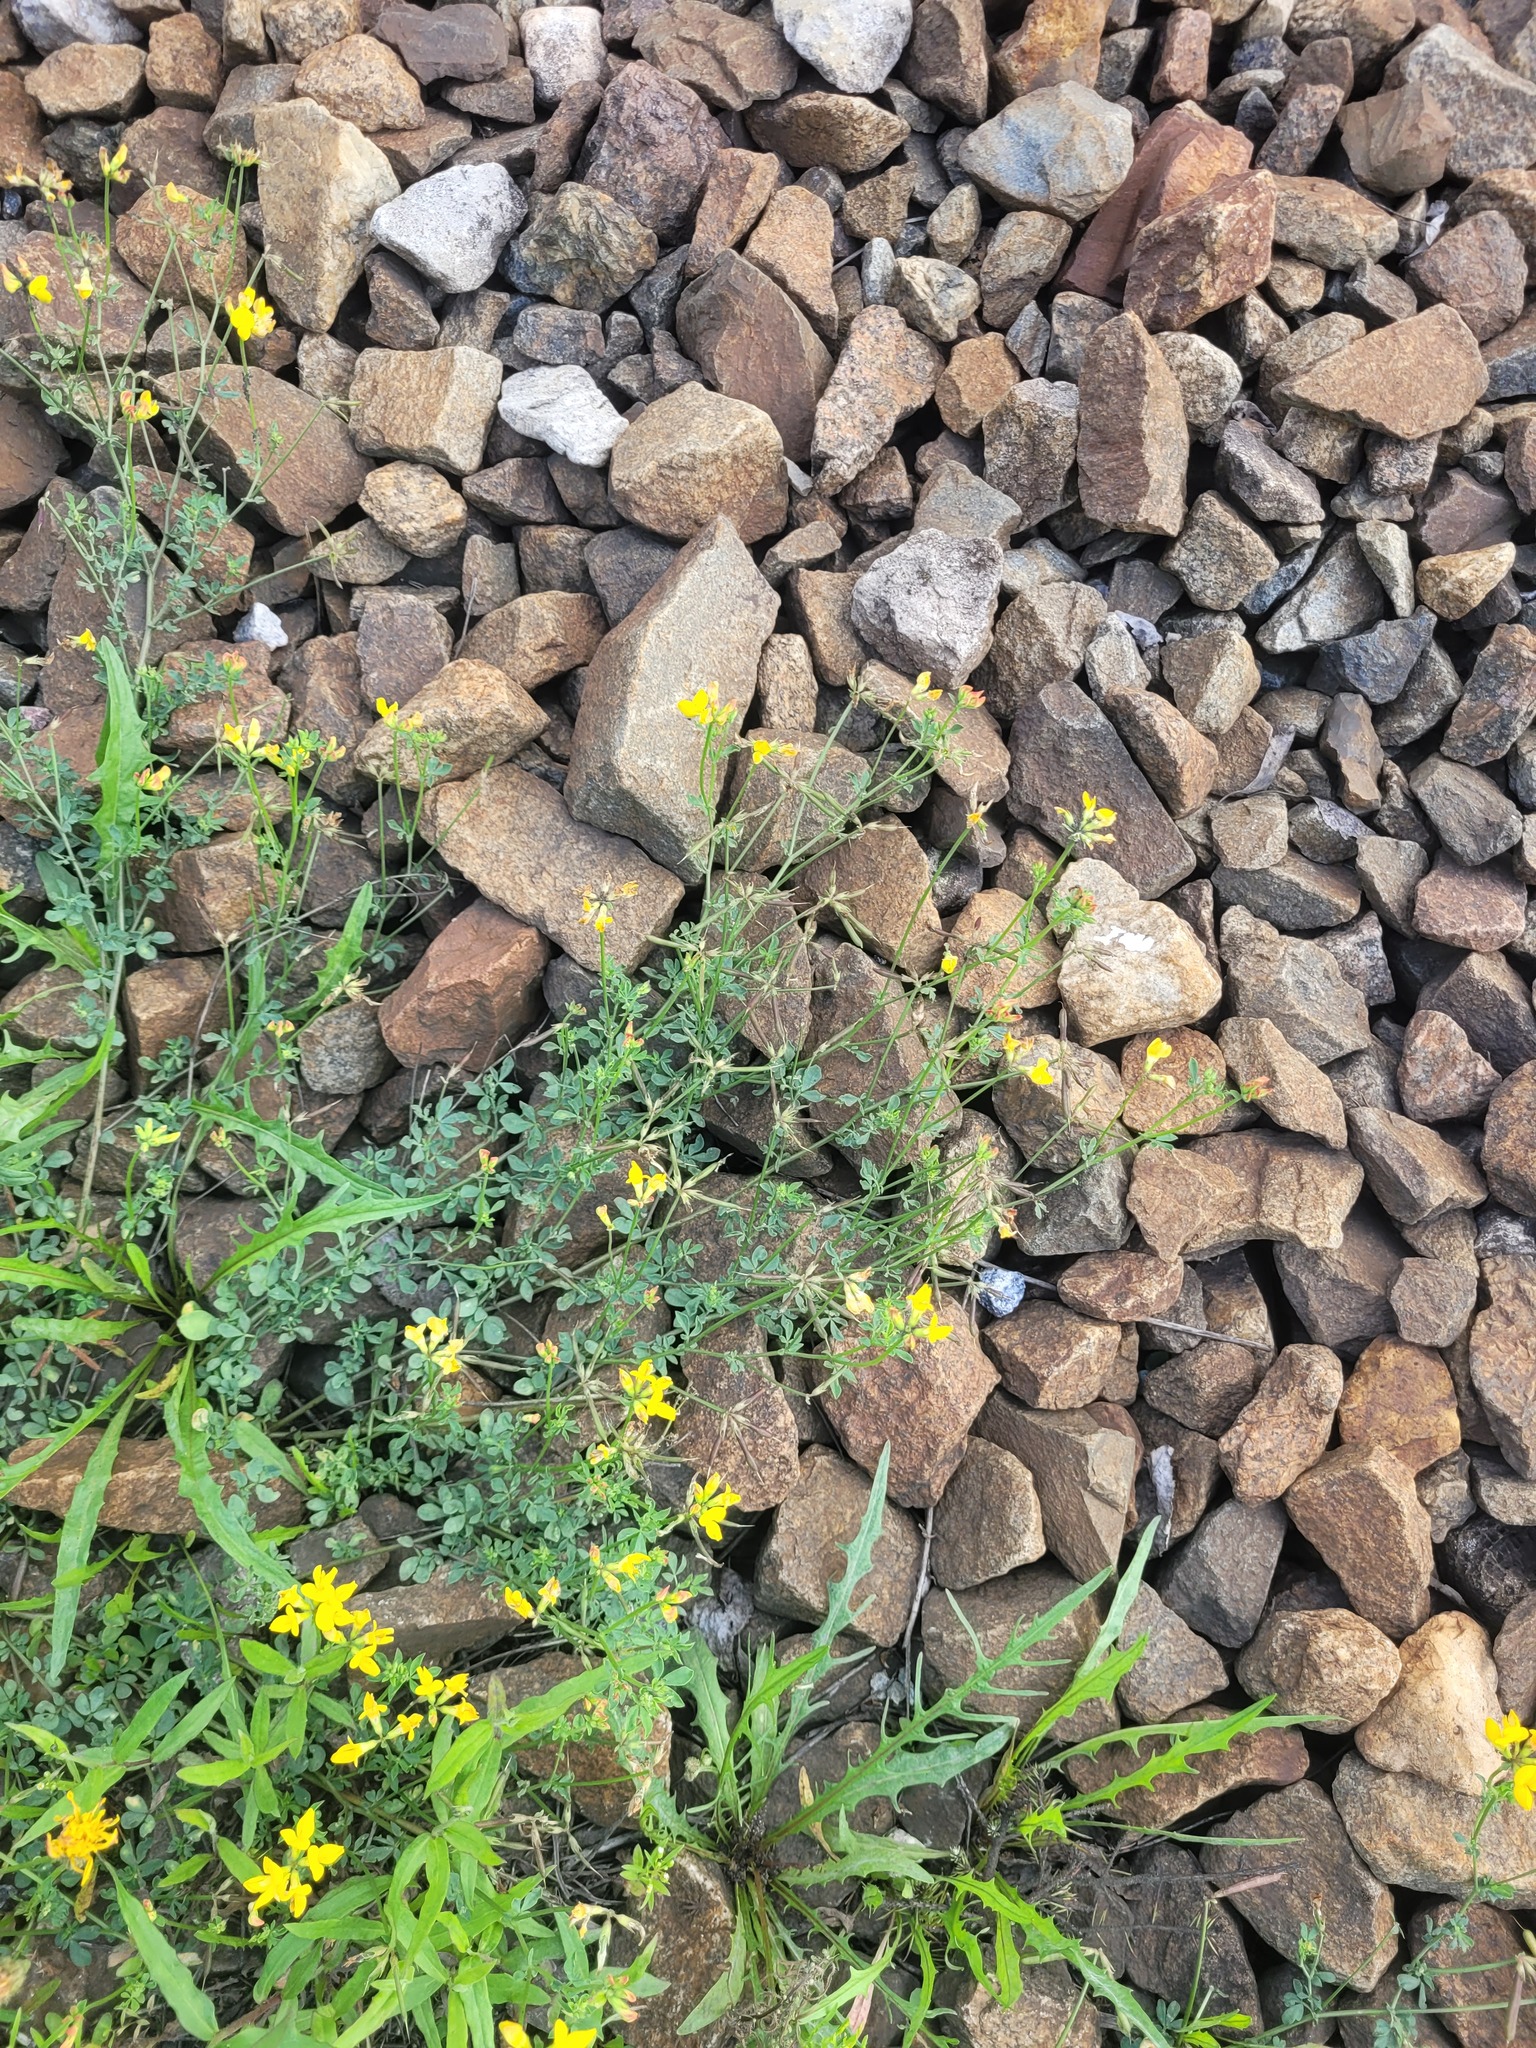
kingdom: Plantae
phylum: Tracheophyta
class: Magnoliopsida
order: Fabales
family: Fabaceae
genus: Lotus
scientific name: Lotus corniculatus
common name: Common bird's-foot-trefoil
